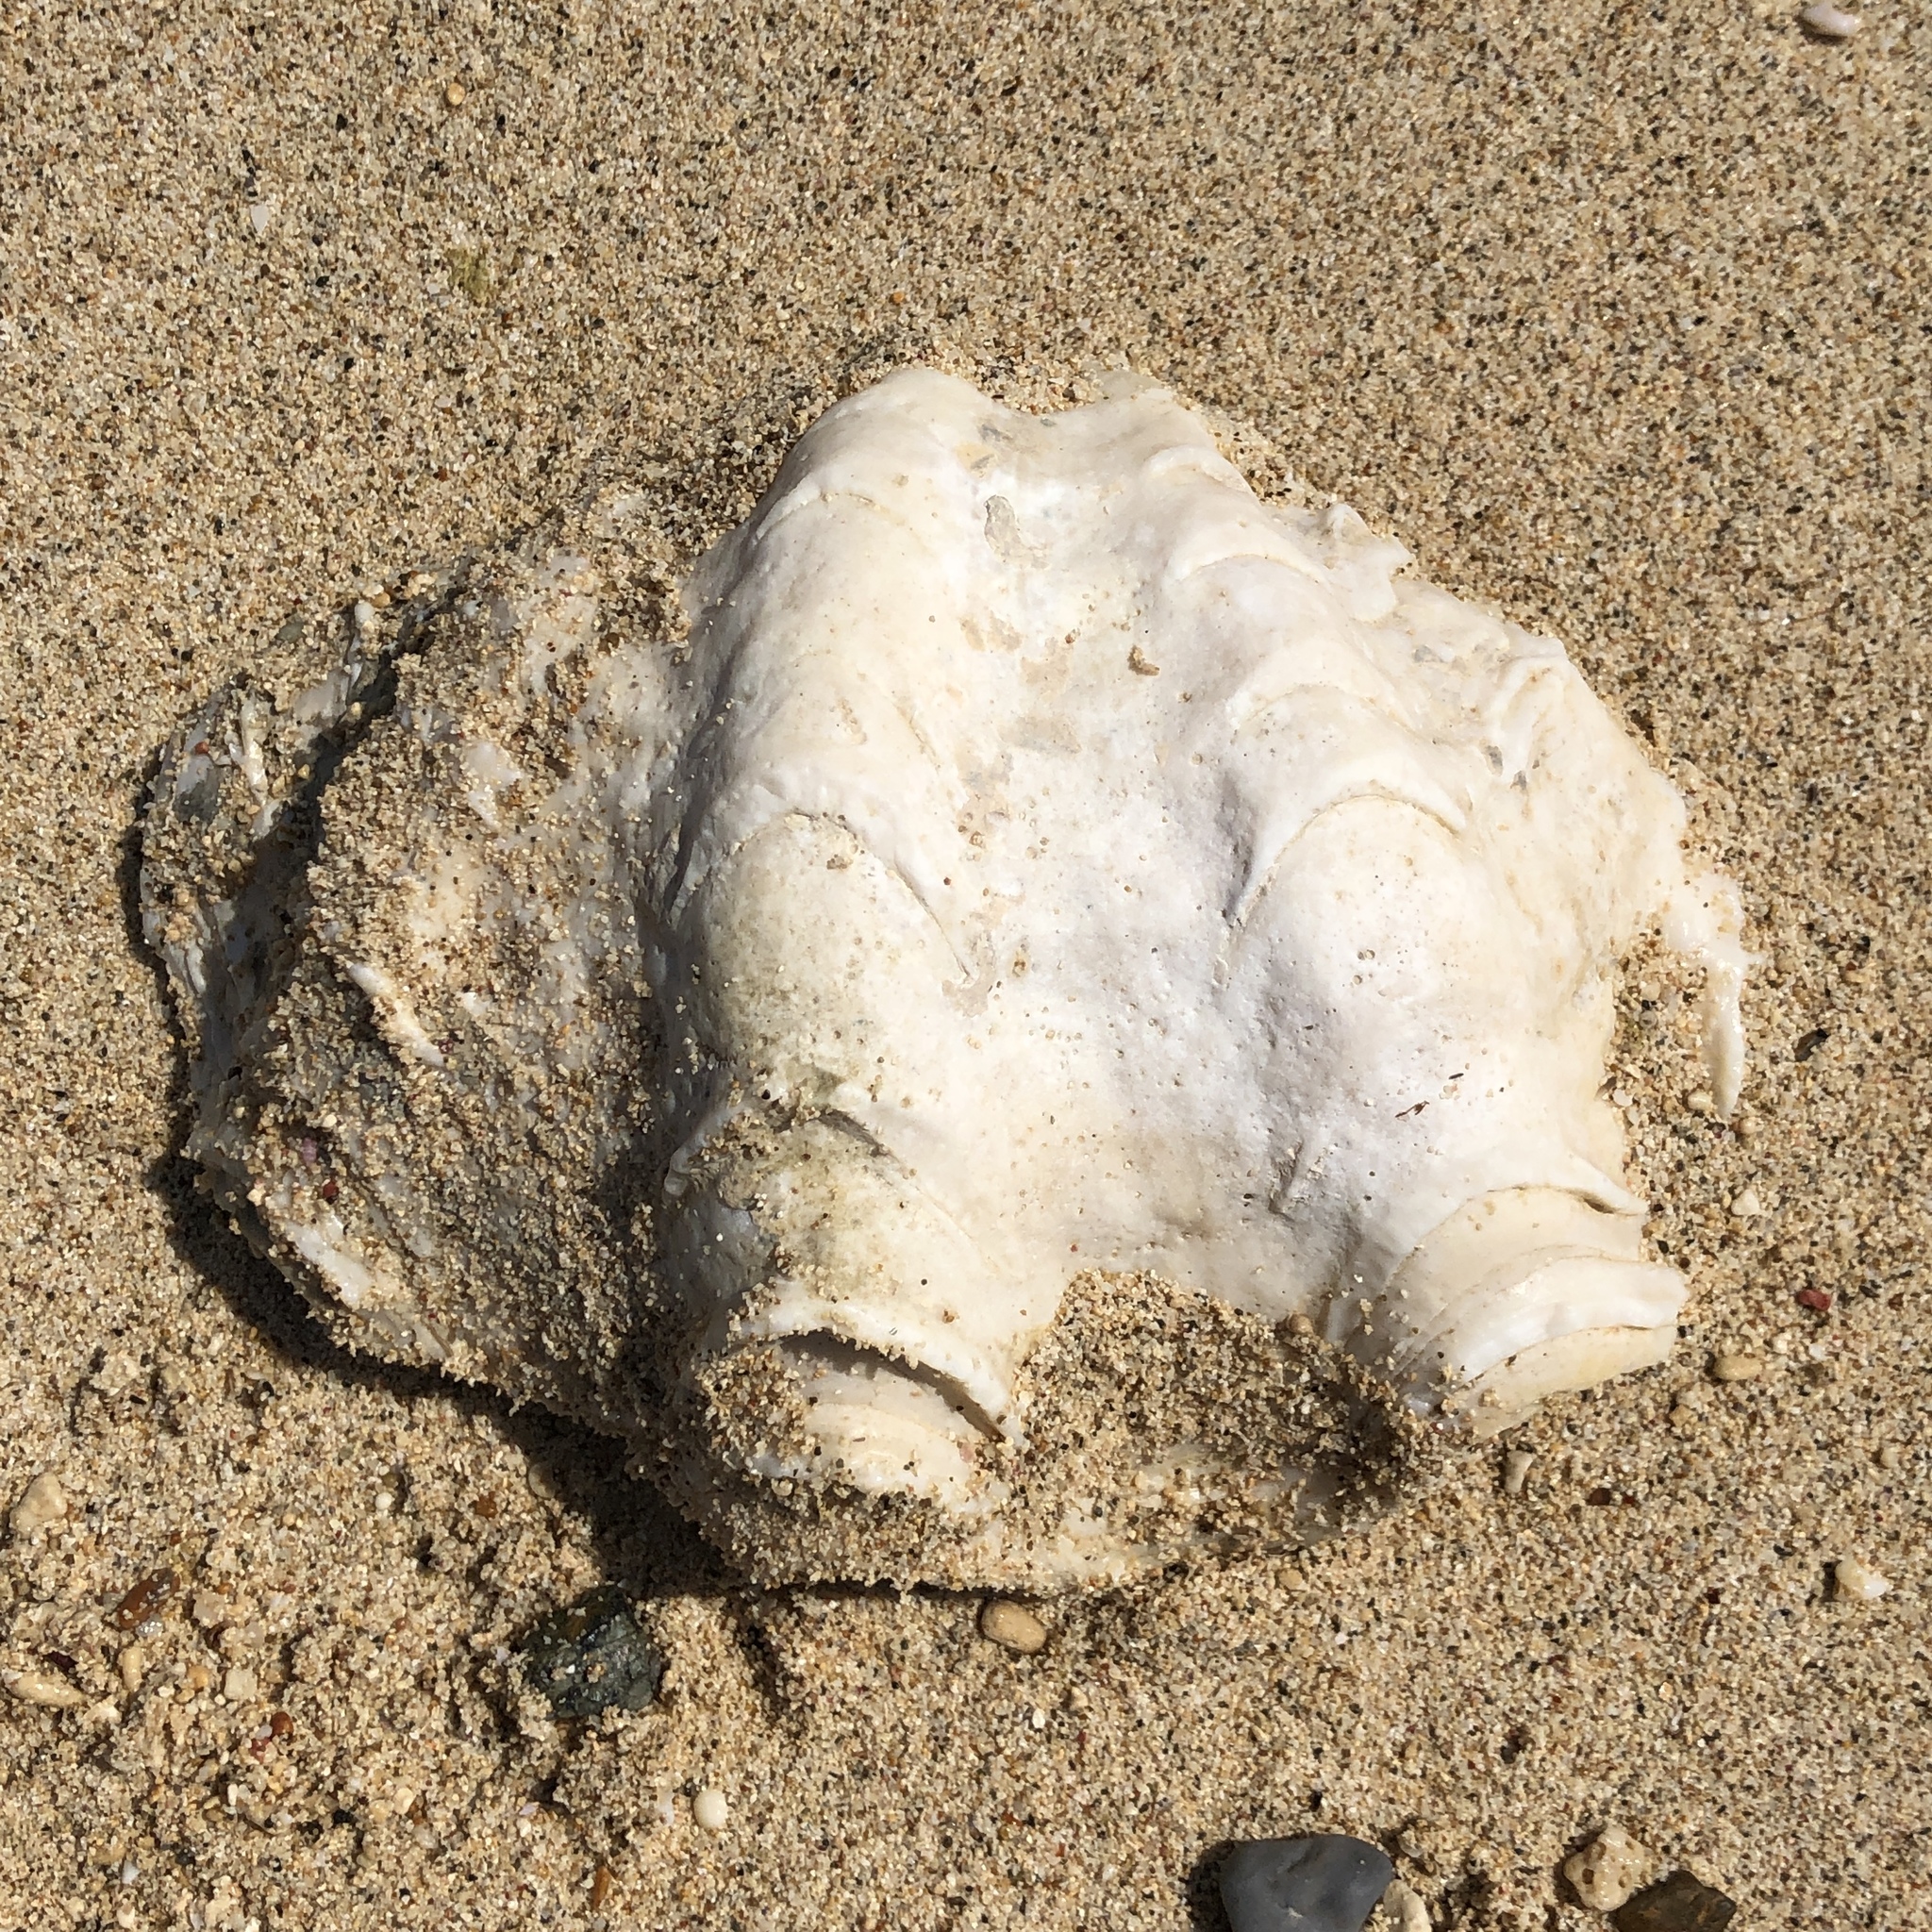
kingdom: Animalia
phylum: Mollusca
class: Bivalvia
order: Cardiida
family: Cardiidae
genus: Tridacna
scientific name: Tridacna squamosa
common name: Fluted clam
